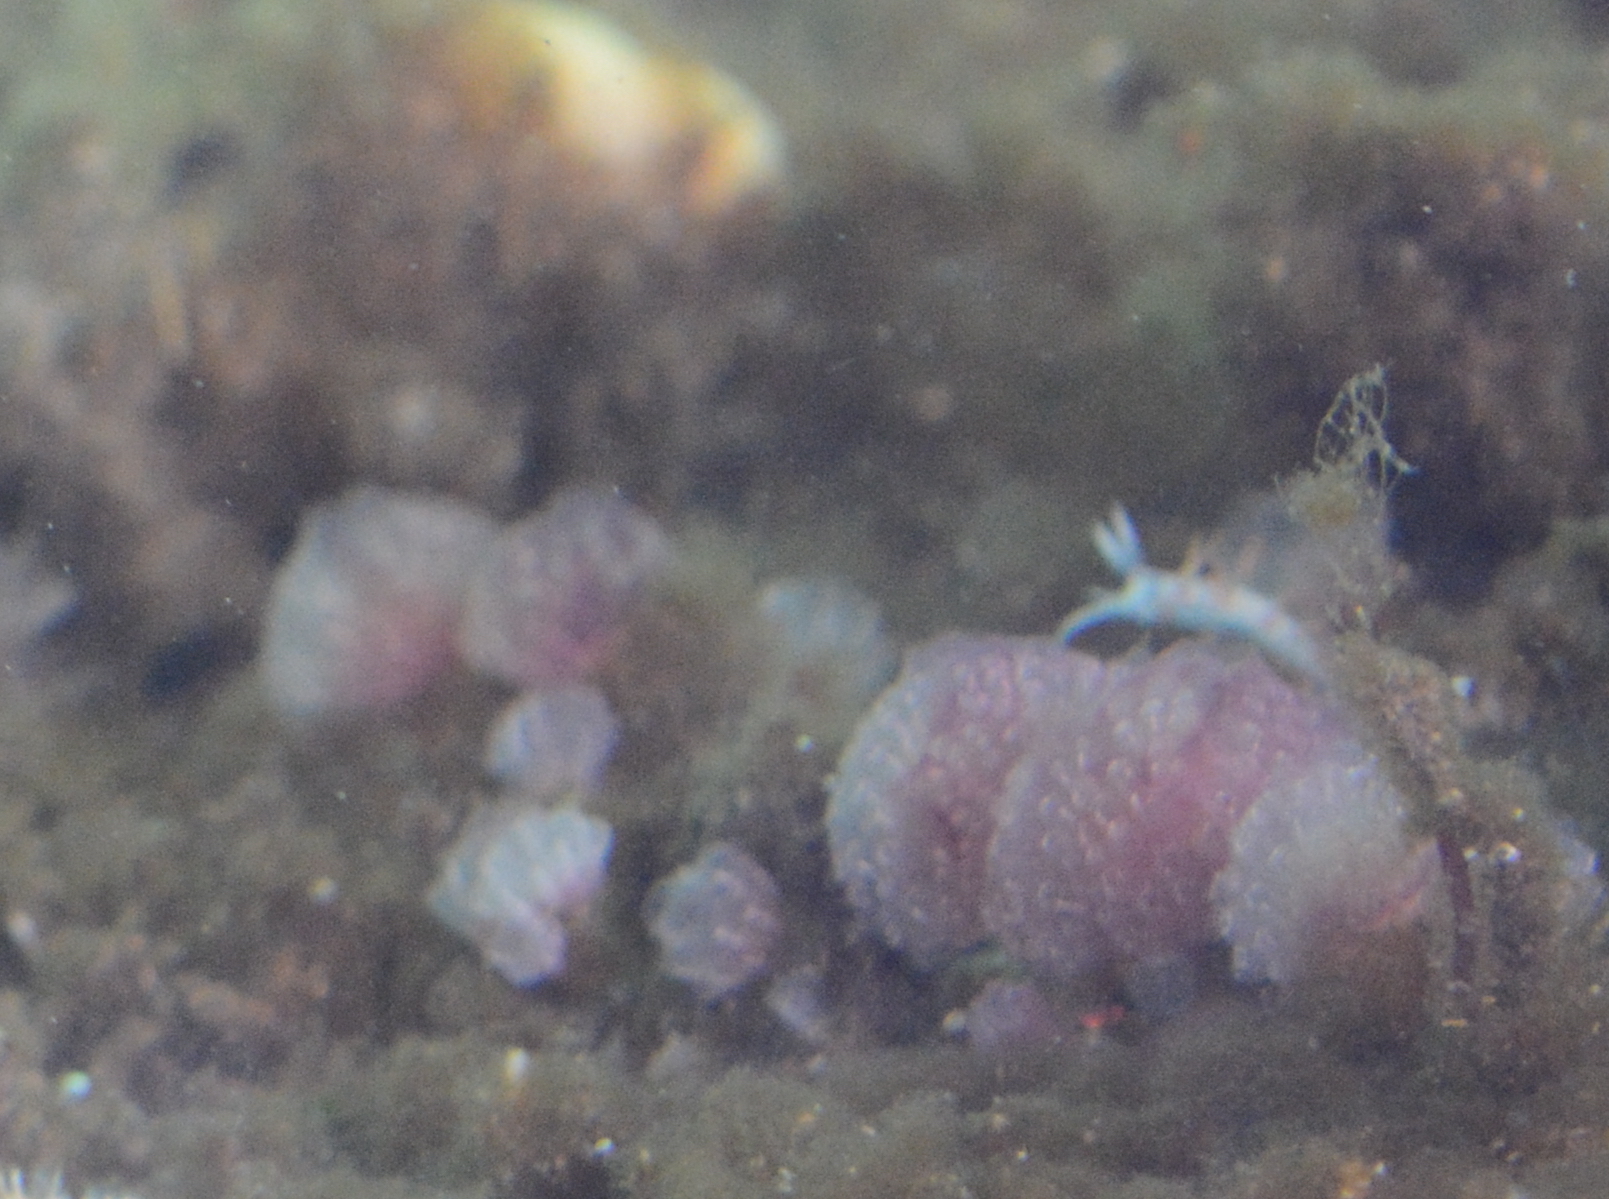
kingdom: Animalia
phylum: Mollusca
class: Gastropoda
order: Nudibranchia
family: Coryphellidae
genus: Coryphella
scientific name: Coryphella trilineata
